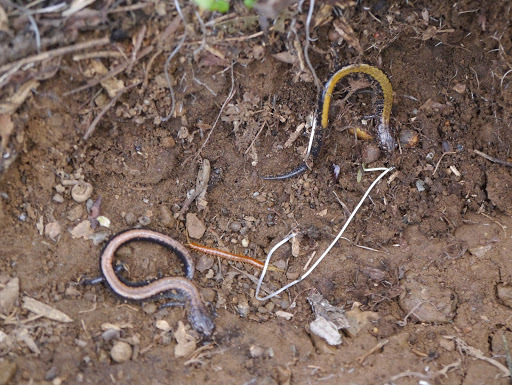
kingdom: Animalia
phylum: Chordata
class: Amphibia
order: Caudata
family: Plethodontidae
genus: Plethodon
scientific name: Plethodon cinereus
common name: Redback salamander
